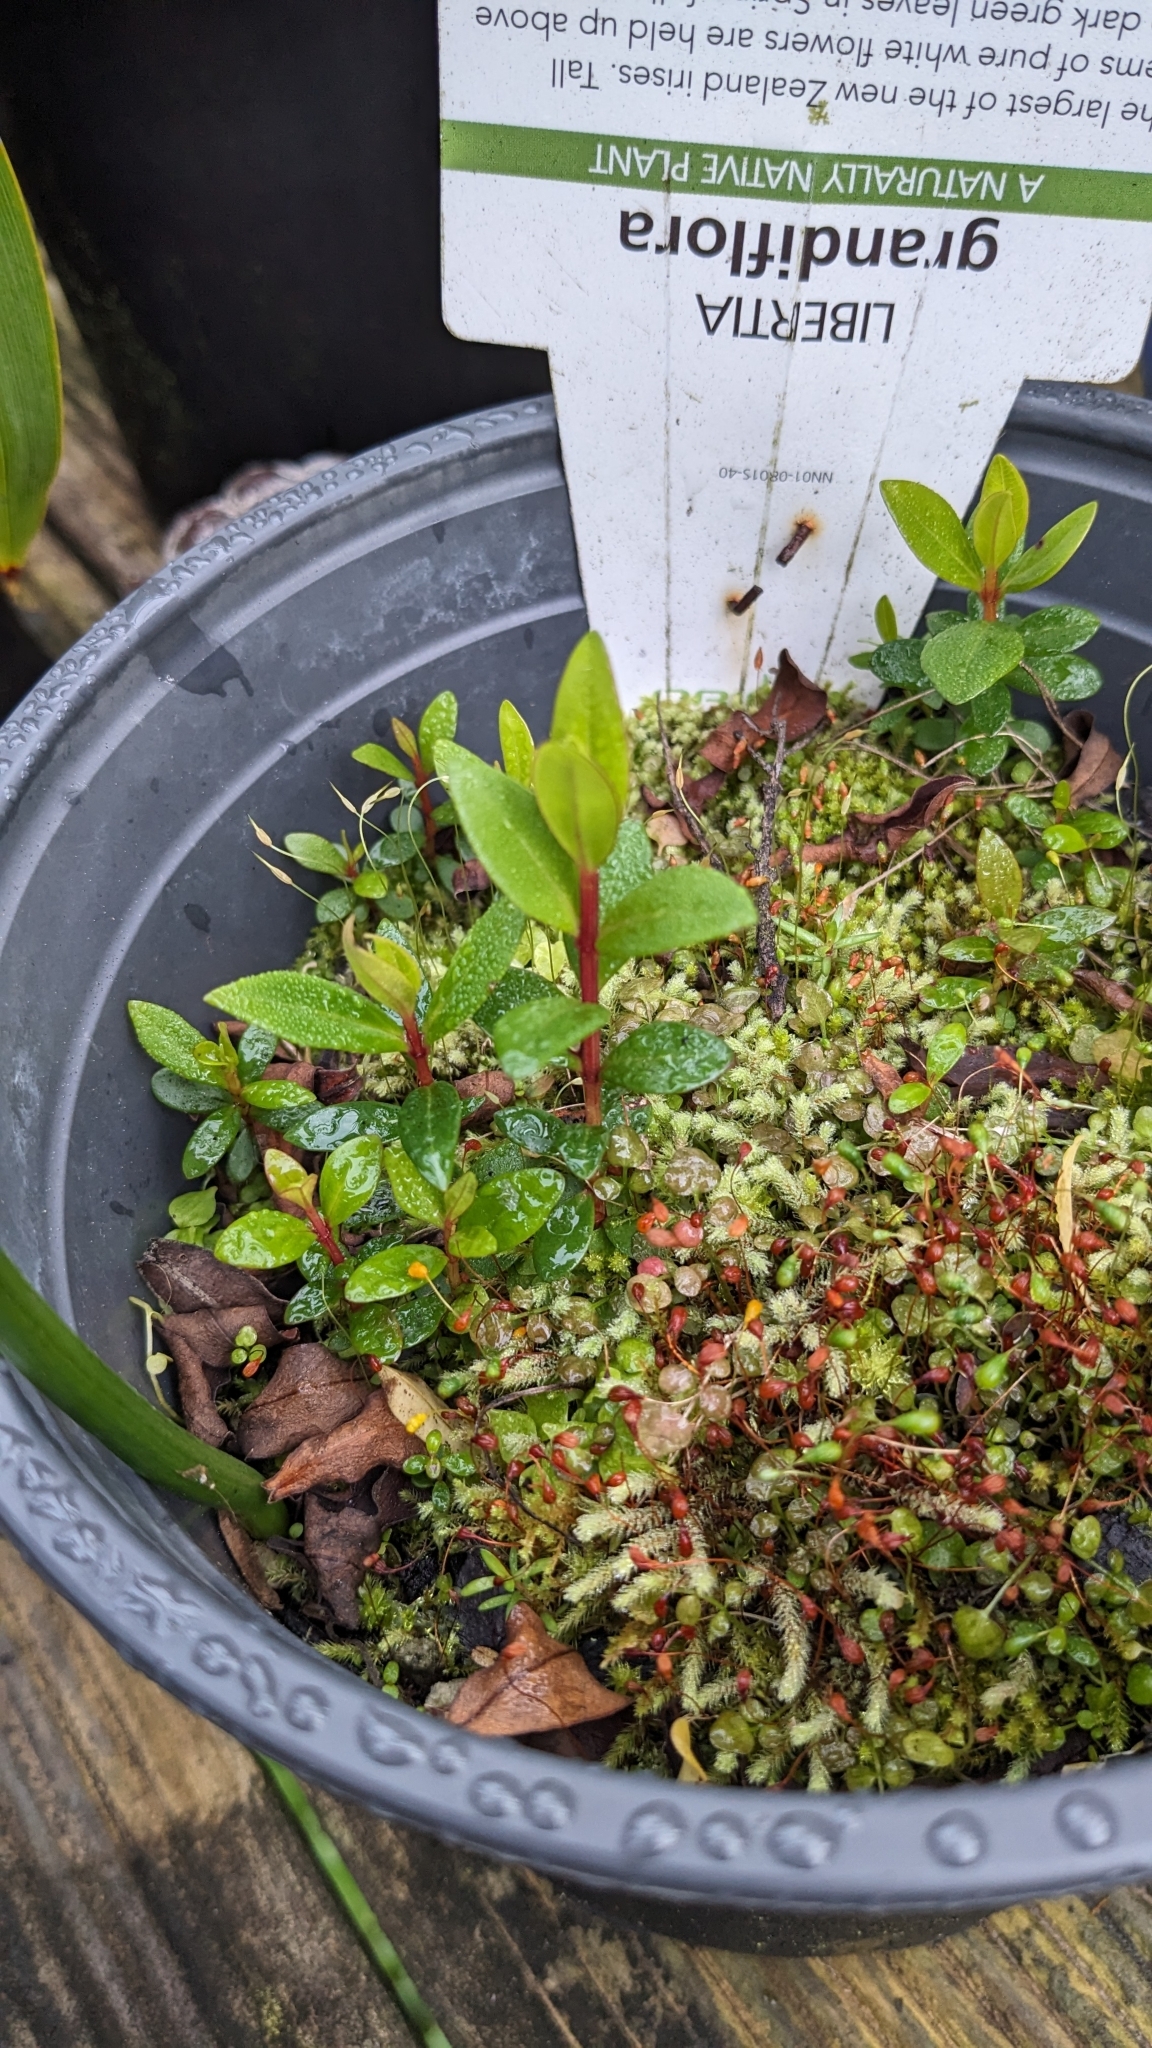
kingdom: Plantae
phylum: Tracheophyta
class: Magnoliopsida
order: Myrtales
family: Myrtaceae
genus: Metrosideros
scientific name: Metrosideros excelsa
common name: New zealand christmastree
